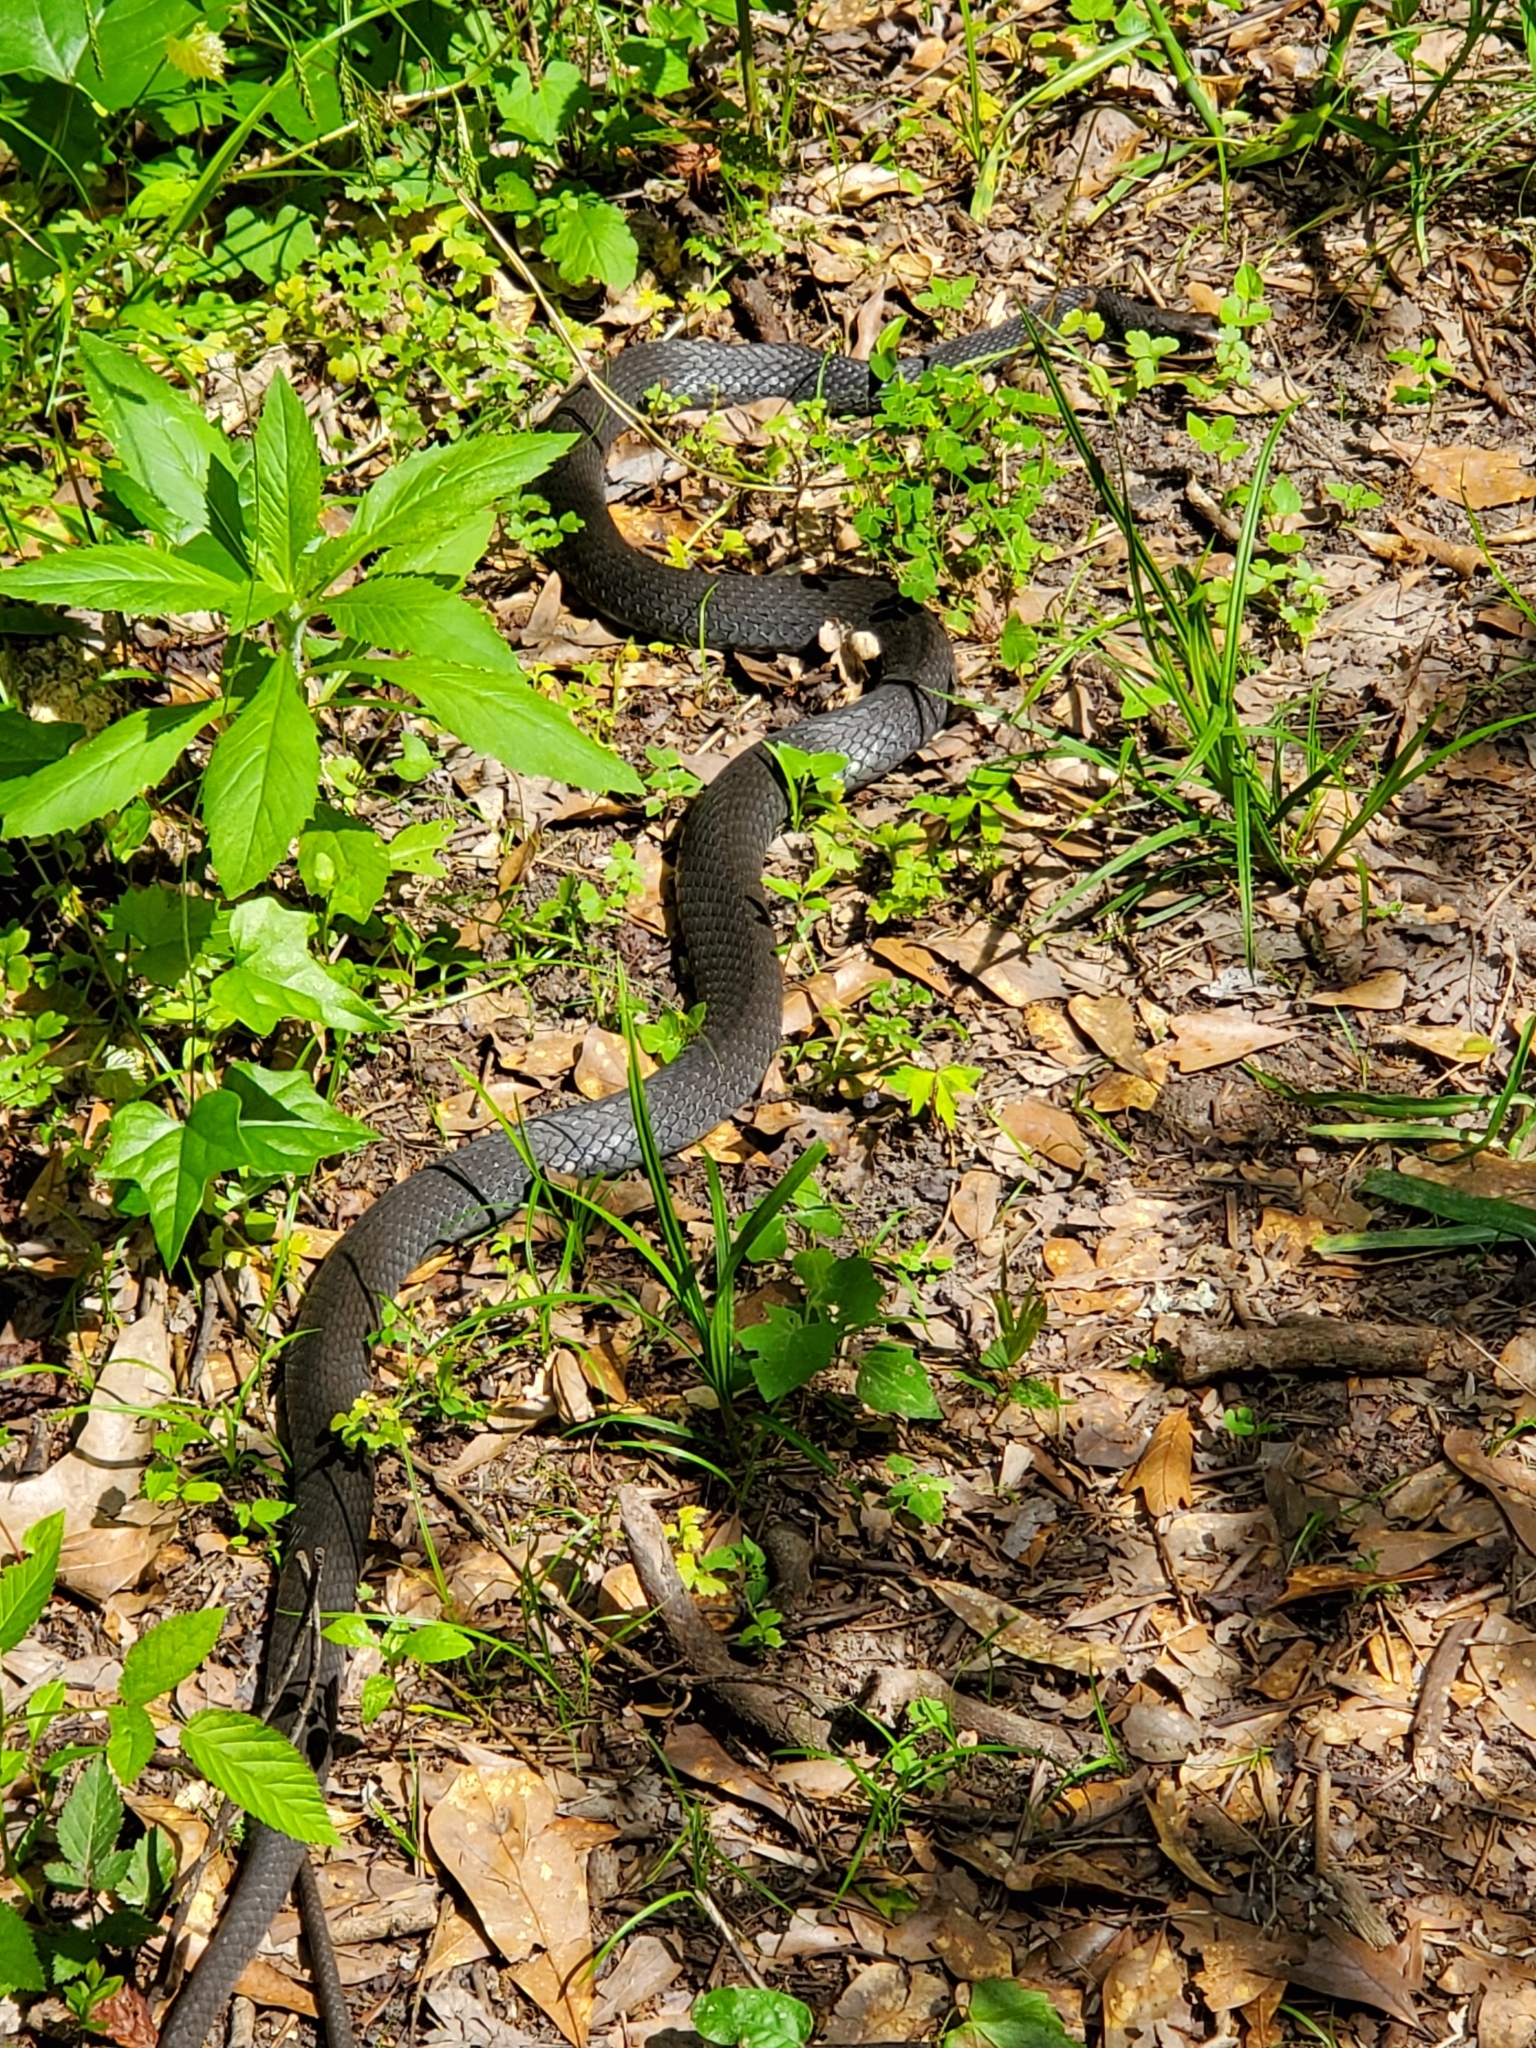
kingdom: Animalia
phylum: Chordata
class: Squamata
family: Colubridae
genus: Coluber
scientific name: Coluber constrictor
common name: Eastern racer
